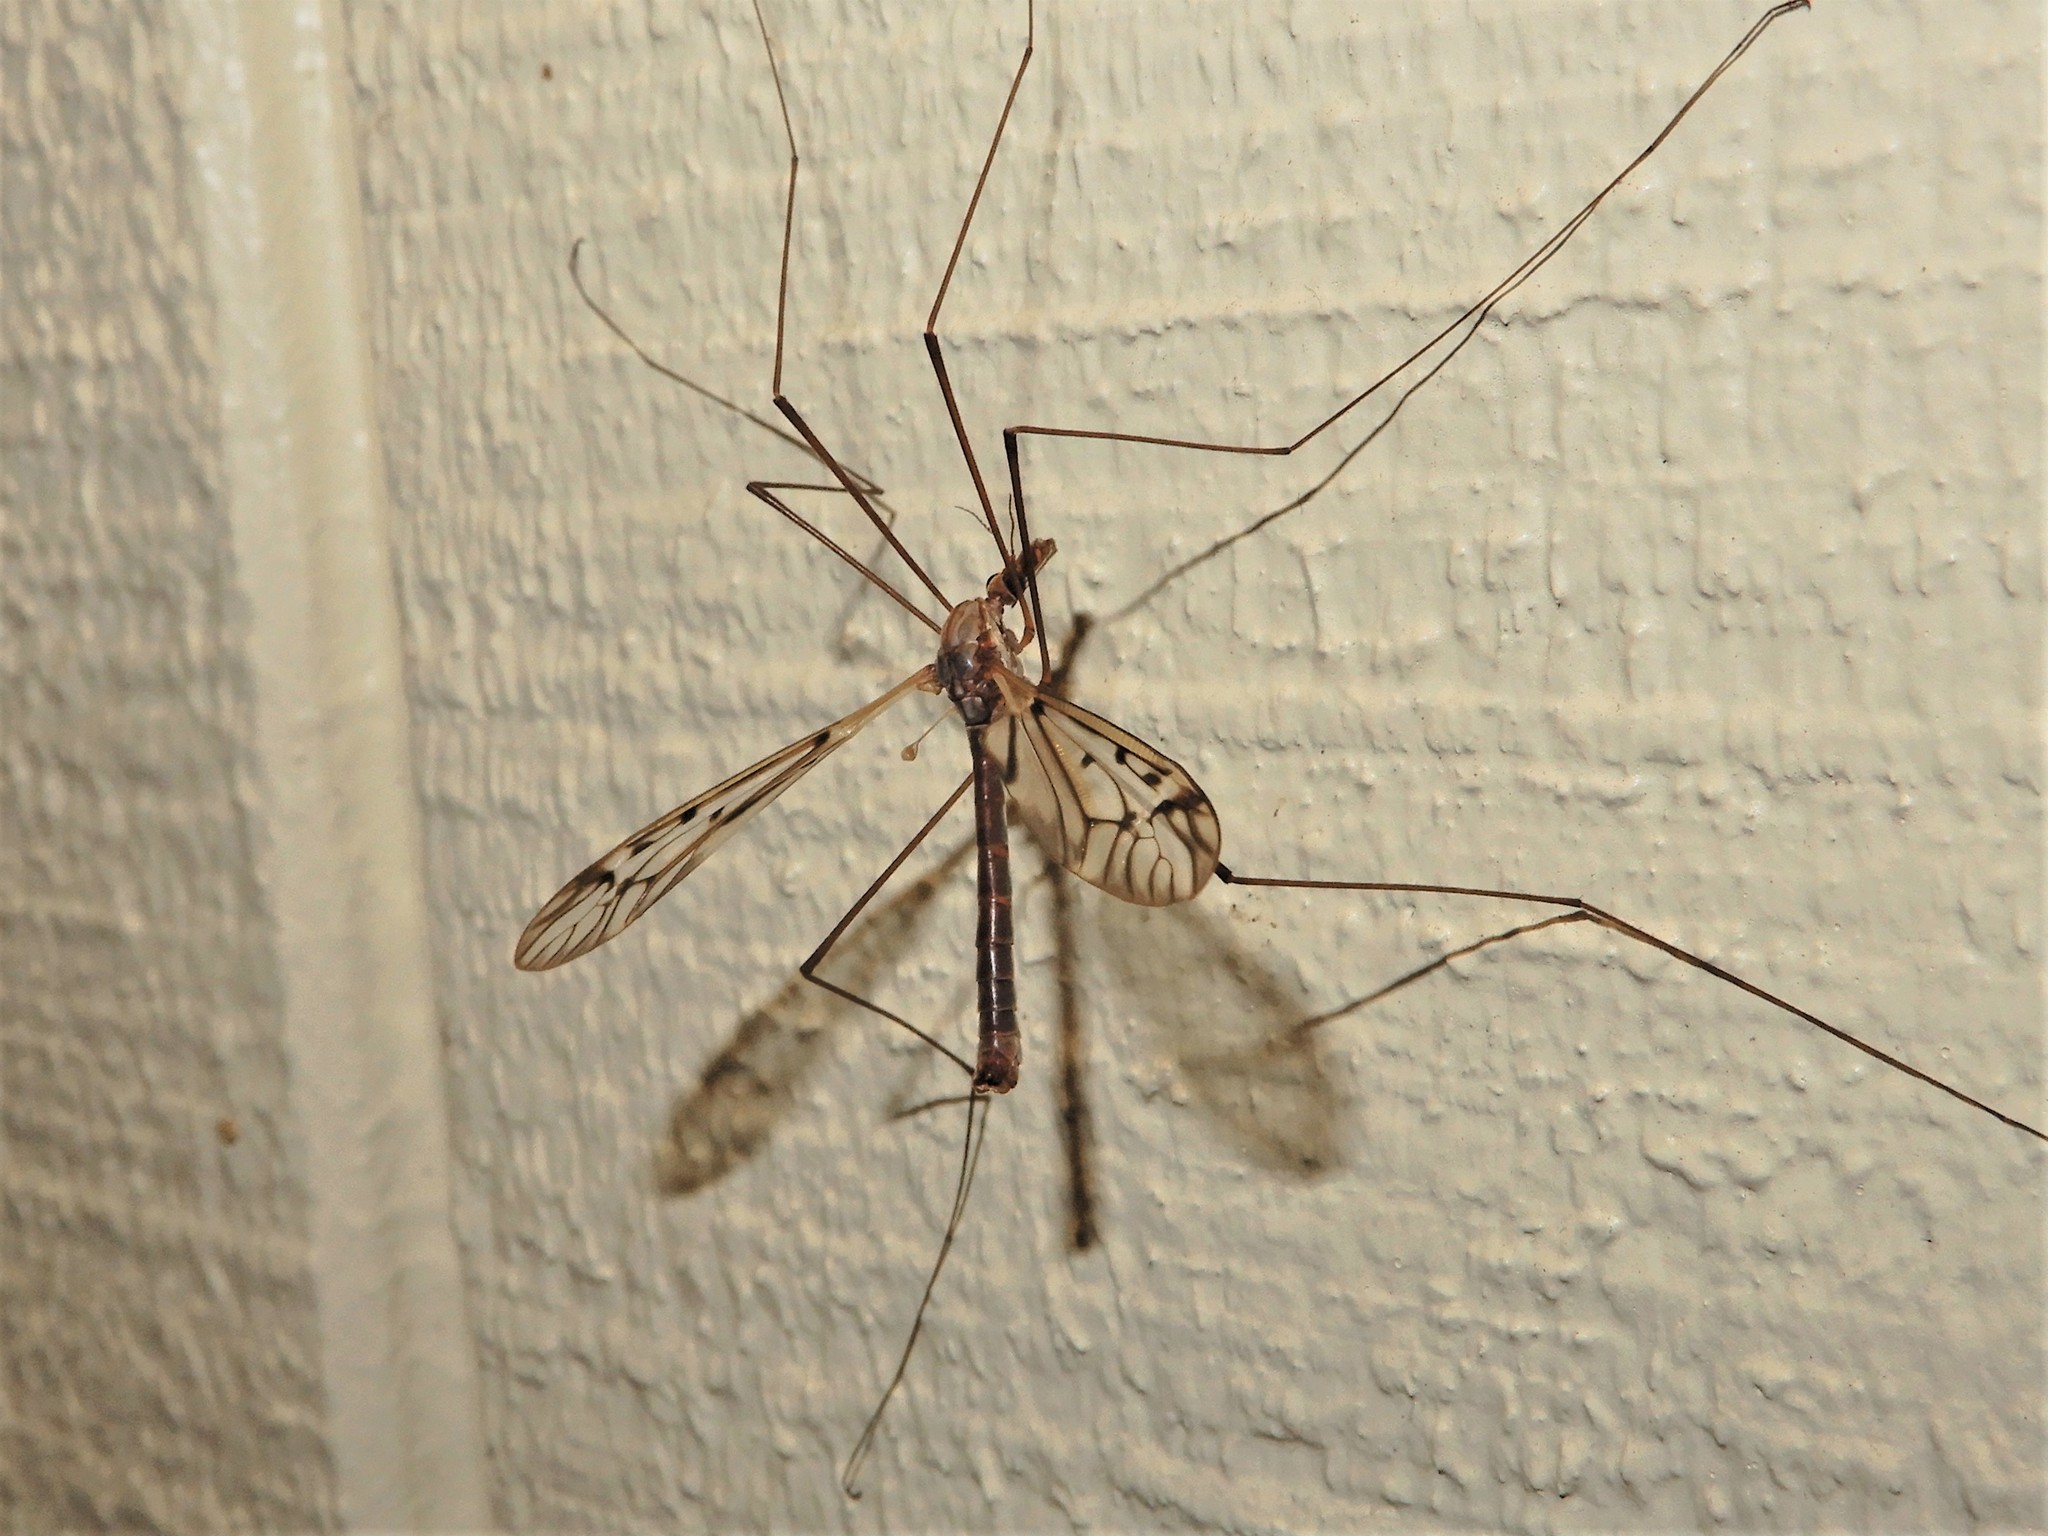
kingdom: Animalia
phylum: Arthropoda
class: Insecta
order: Diptera
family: Tipulidae
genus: Zelandotipula
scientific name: Zelandotipula novarae
